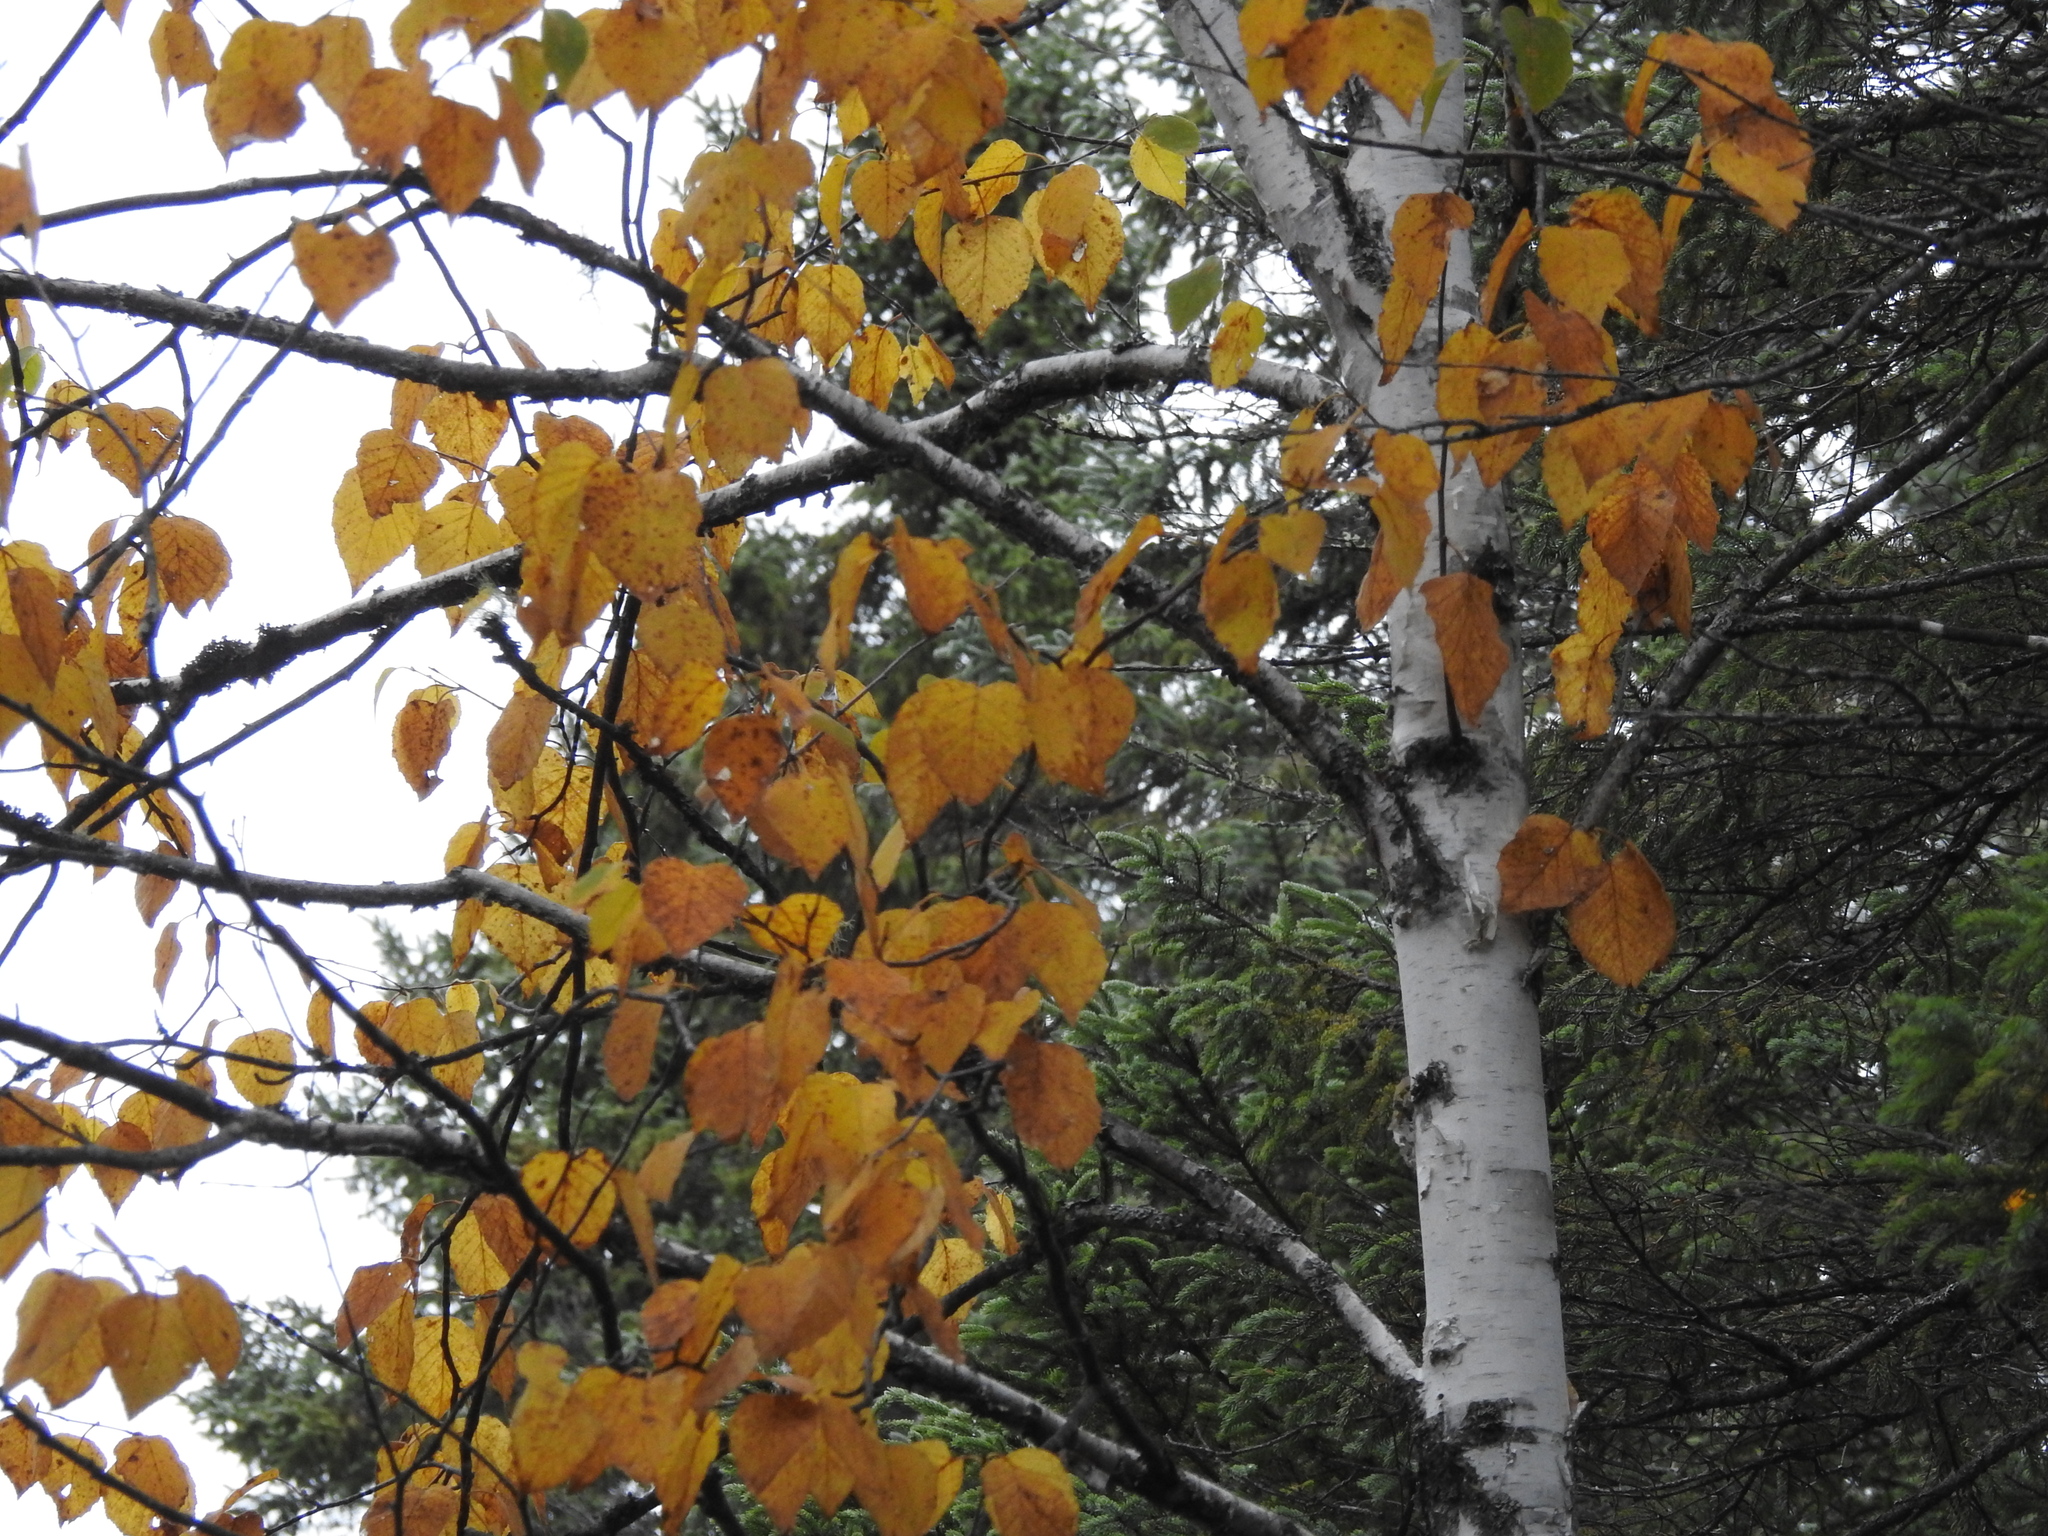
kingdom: Plantae
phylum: Tracheophyta
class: Magnoliopsida
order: Fagales
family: Betulaceae
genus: Betula
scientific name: Betula papyrifera
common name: Paper birch
